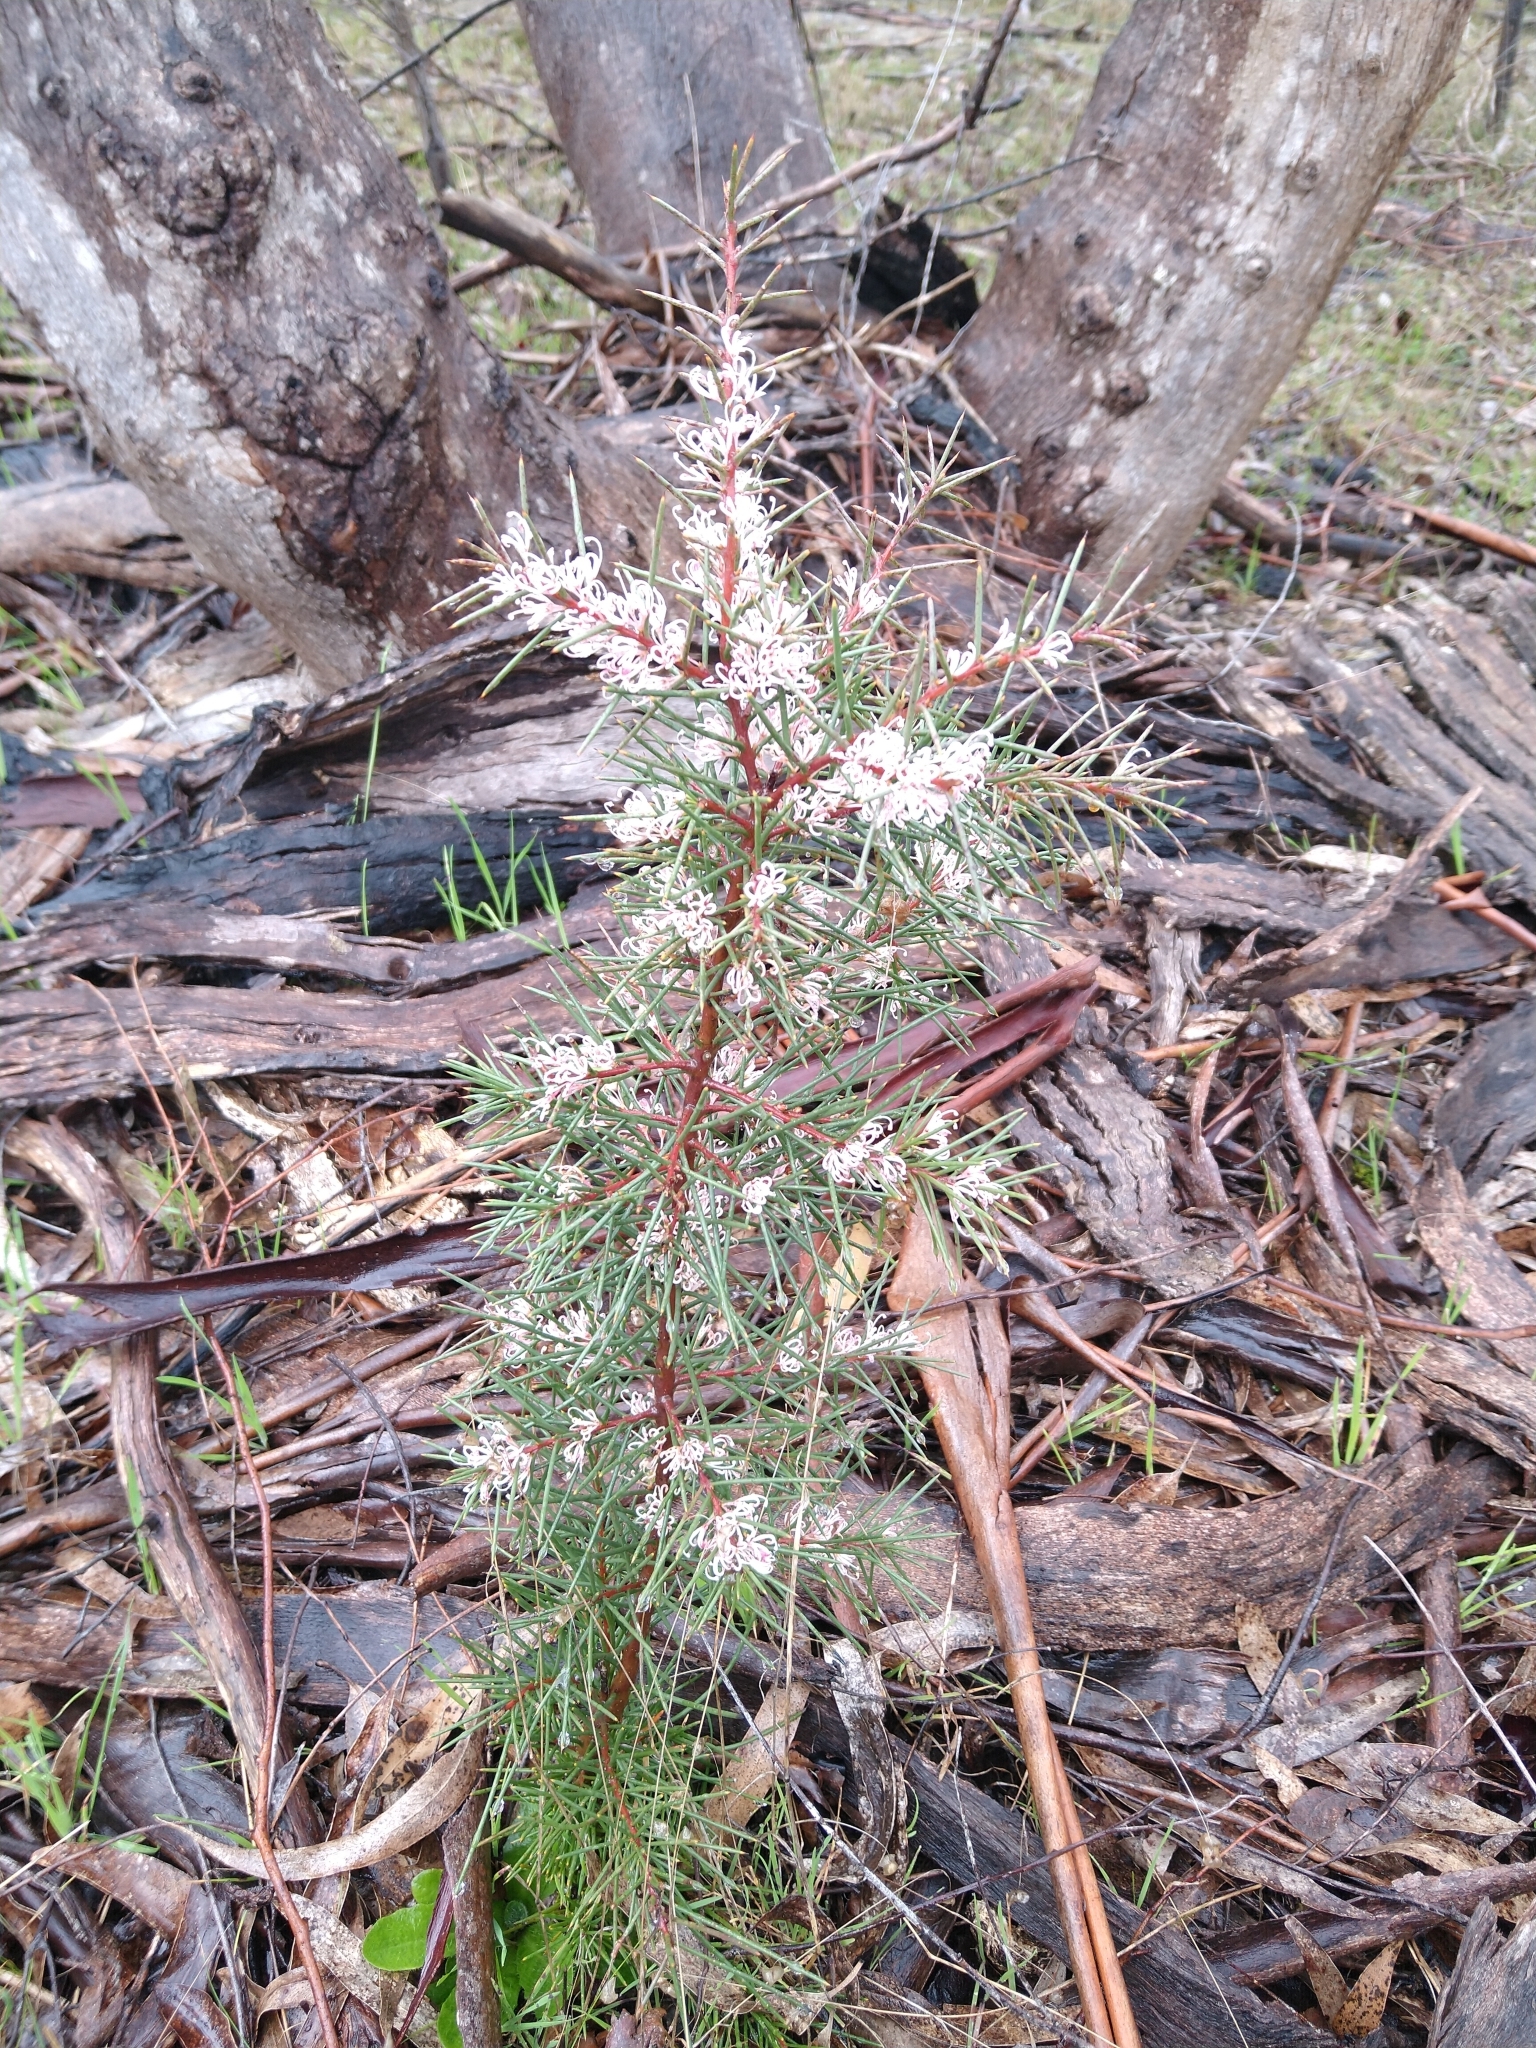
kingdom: Plantae
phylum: Tracheophyta
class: Magnoliopsida
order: Proteales
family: Proteaceae
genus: Hakea
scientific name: Hakea decurrens
